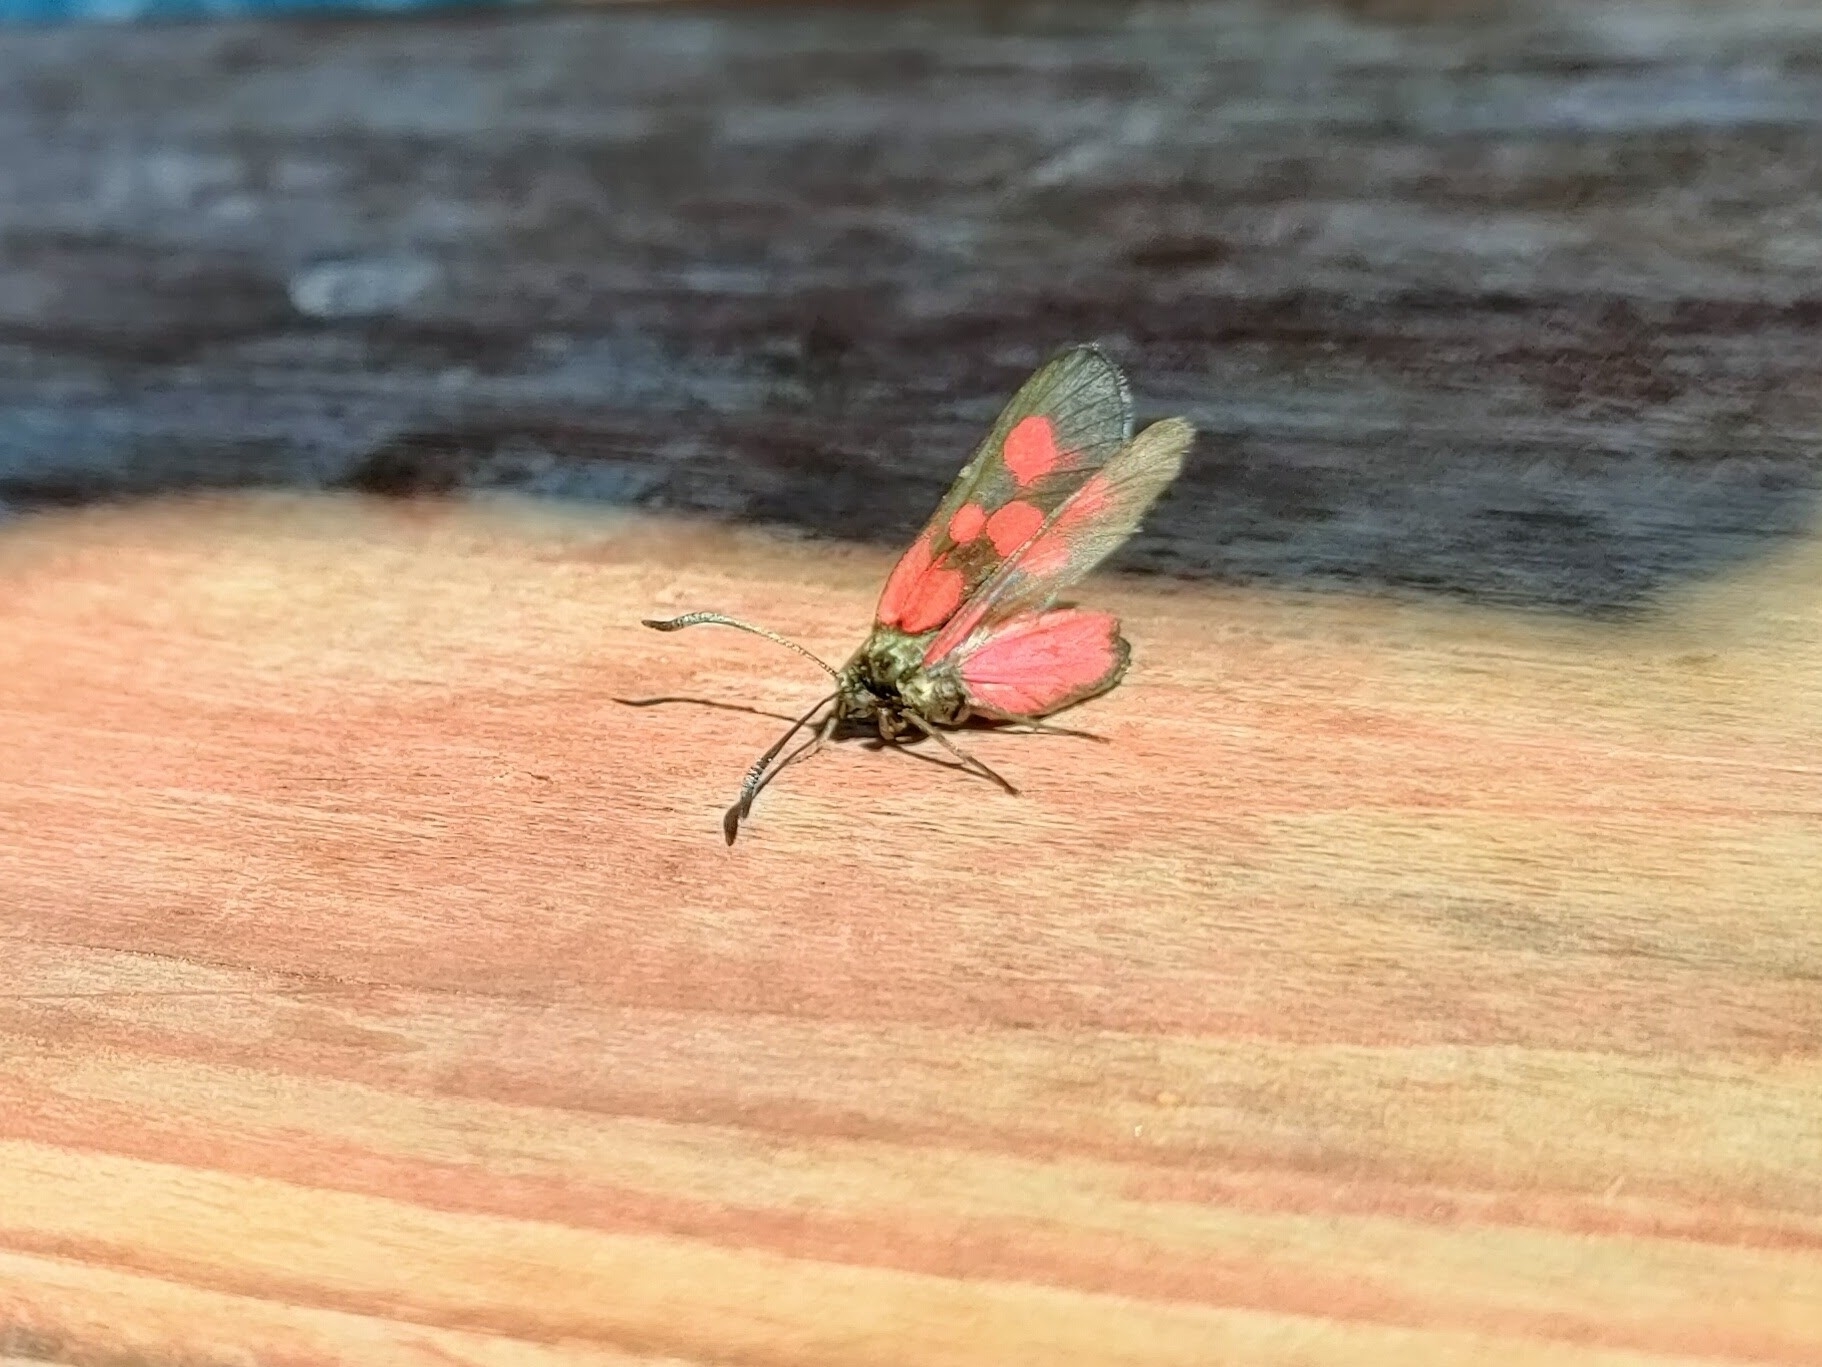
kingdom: Animalia
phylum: Arthropoda
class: Insecta
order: Lepidoptera
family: Zygaenidae
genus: Zygaena
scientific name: Zygaena viciae
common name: New forest burnet
